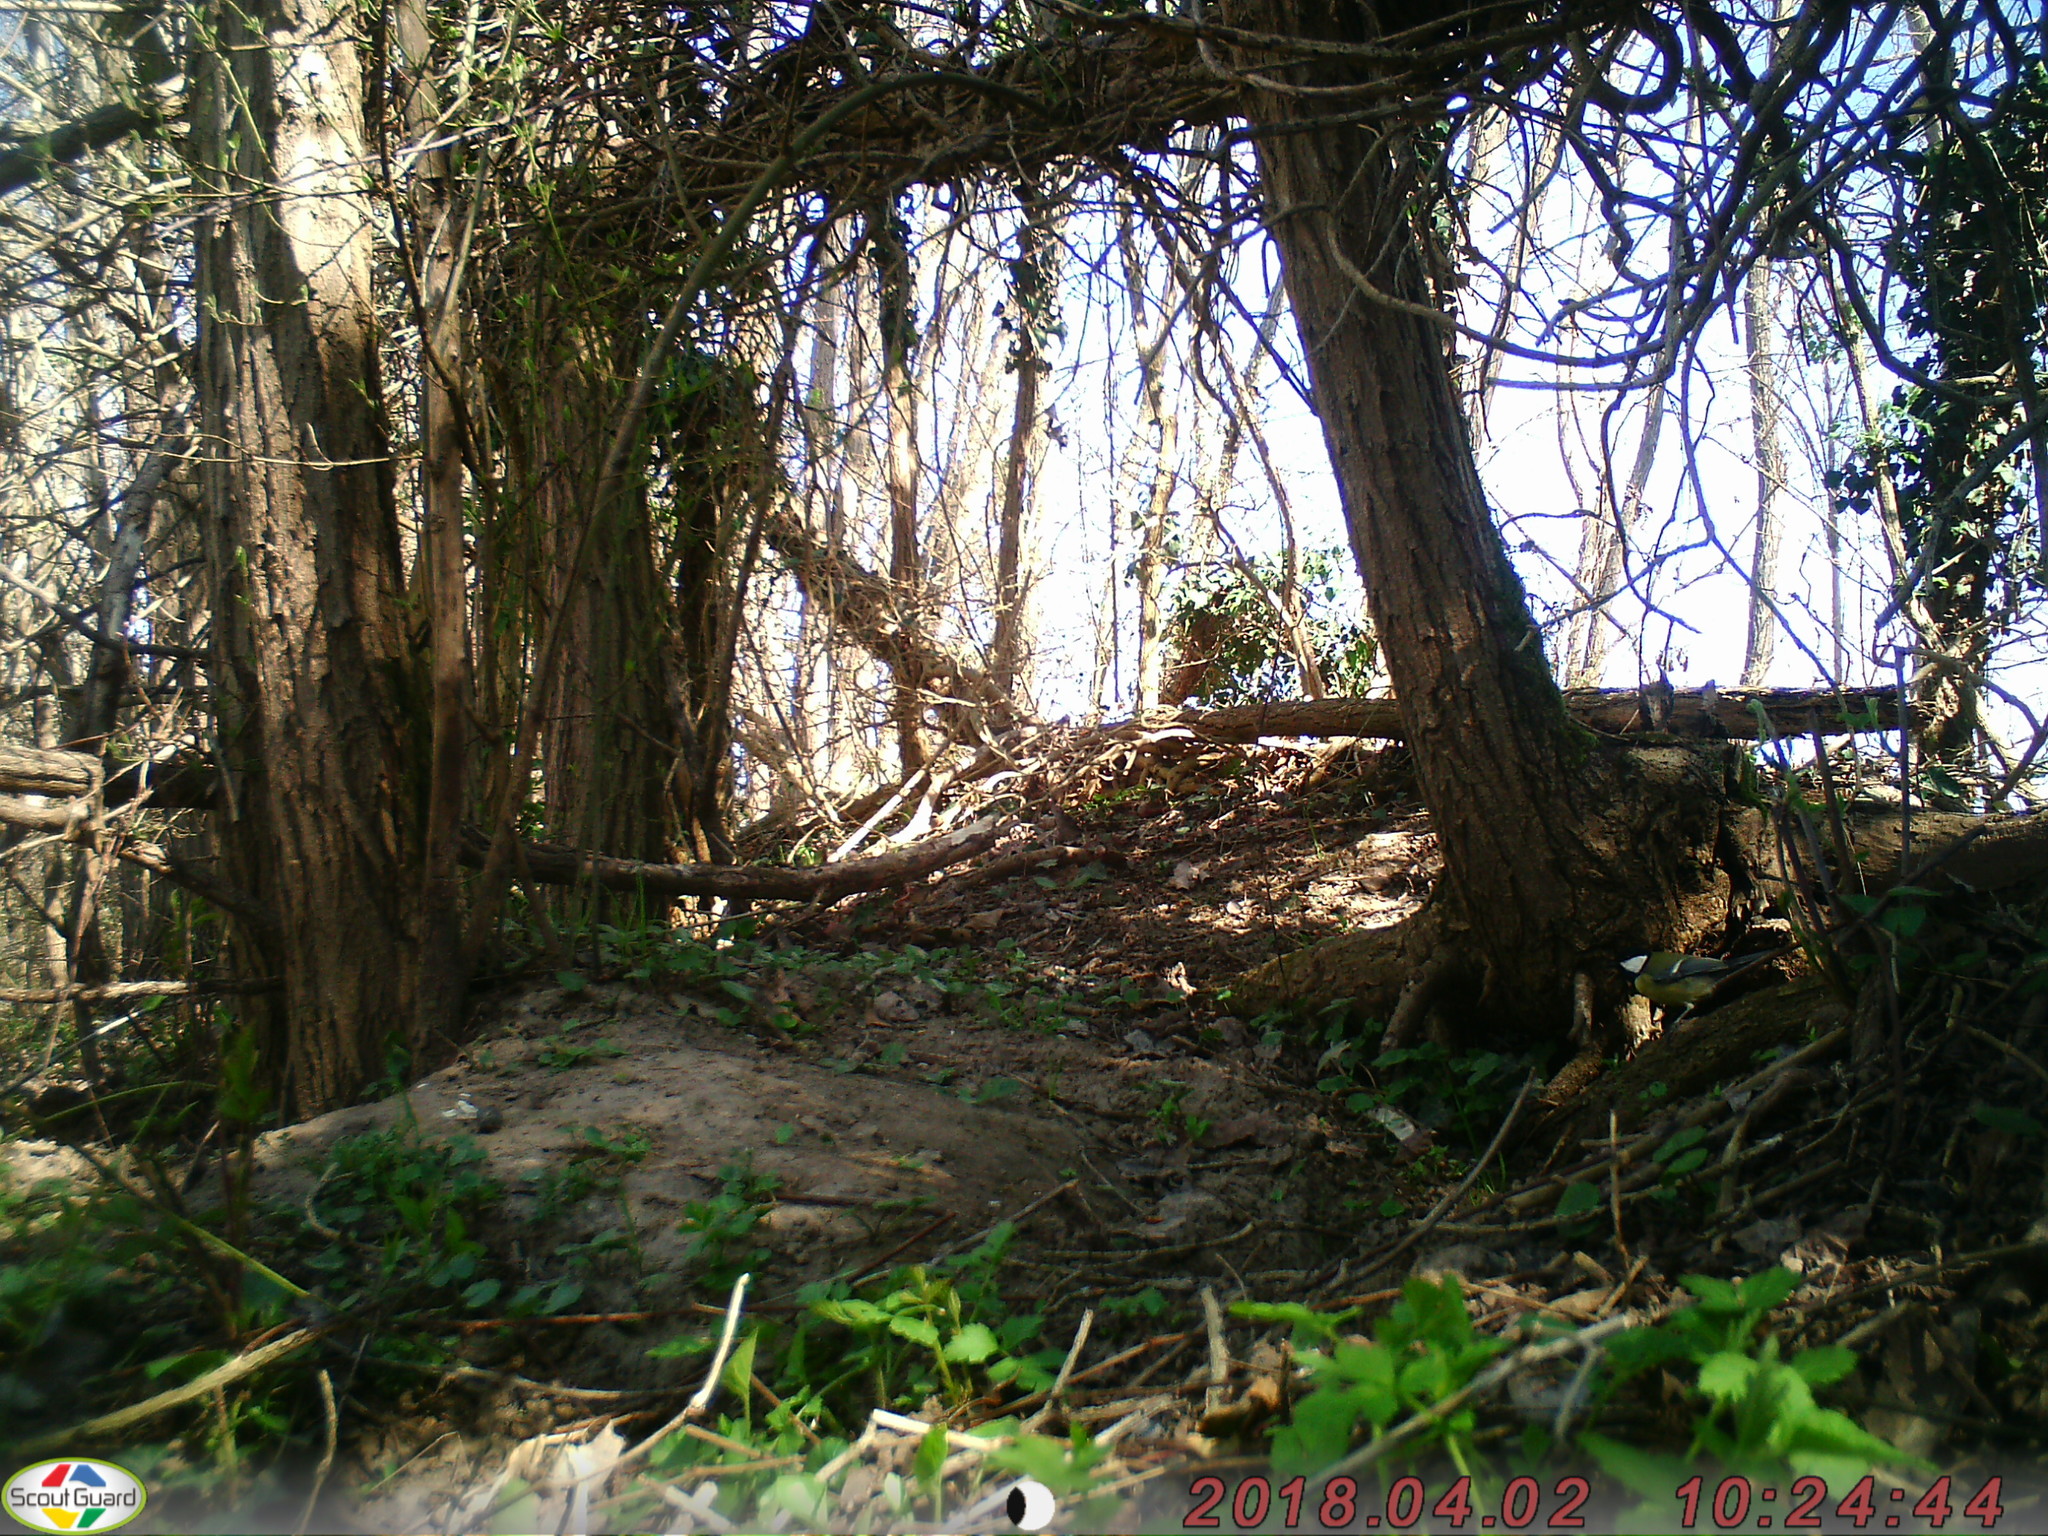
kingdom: Animalia
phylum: Chordata
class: Aves
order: Passeriformes
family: Paridae
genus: Parus
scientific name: Parus major
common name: Great tit
